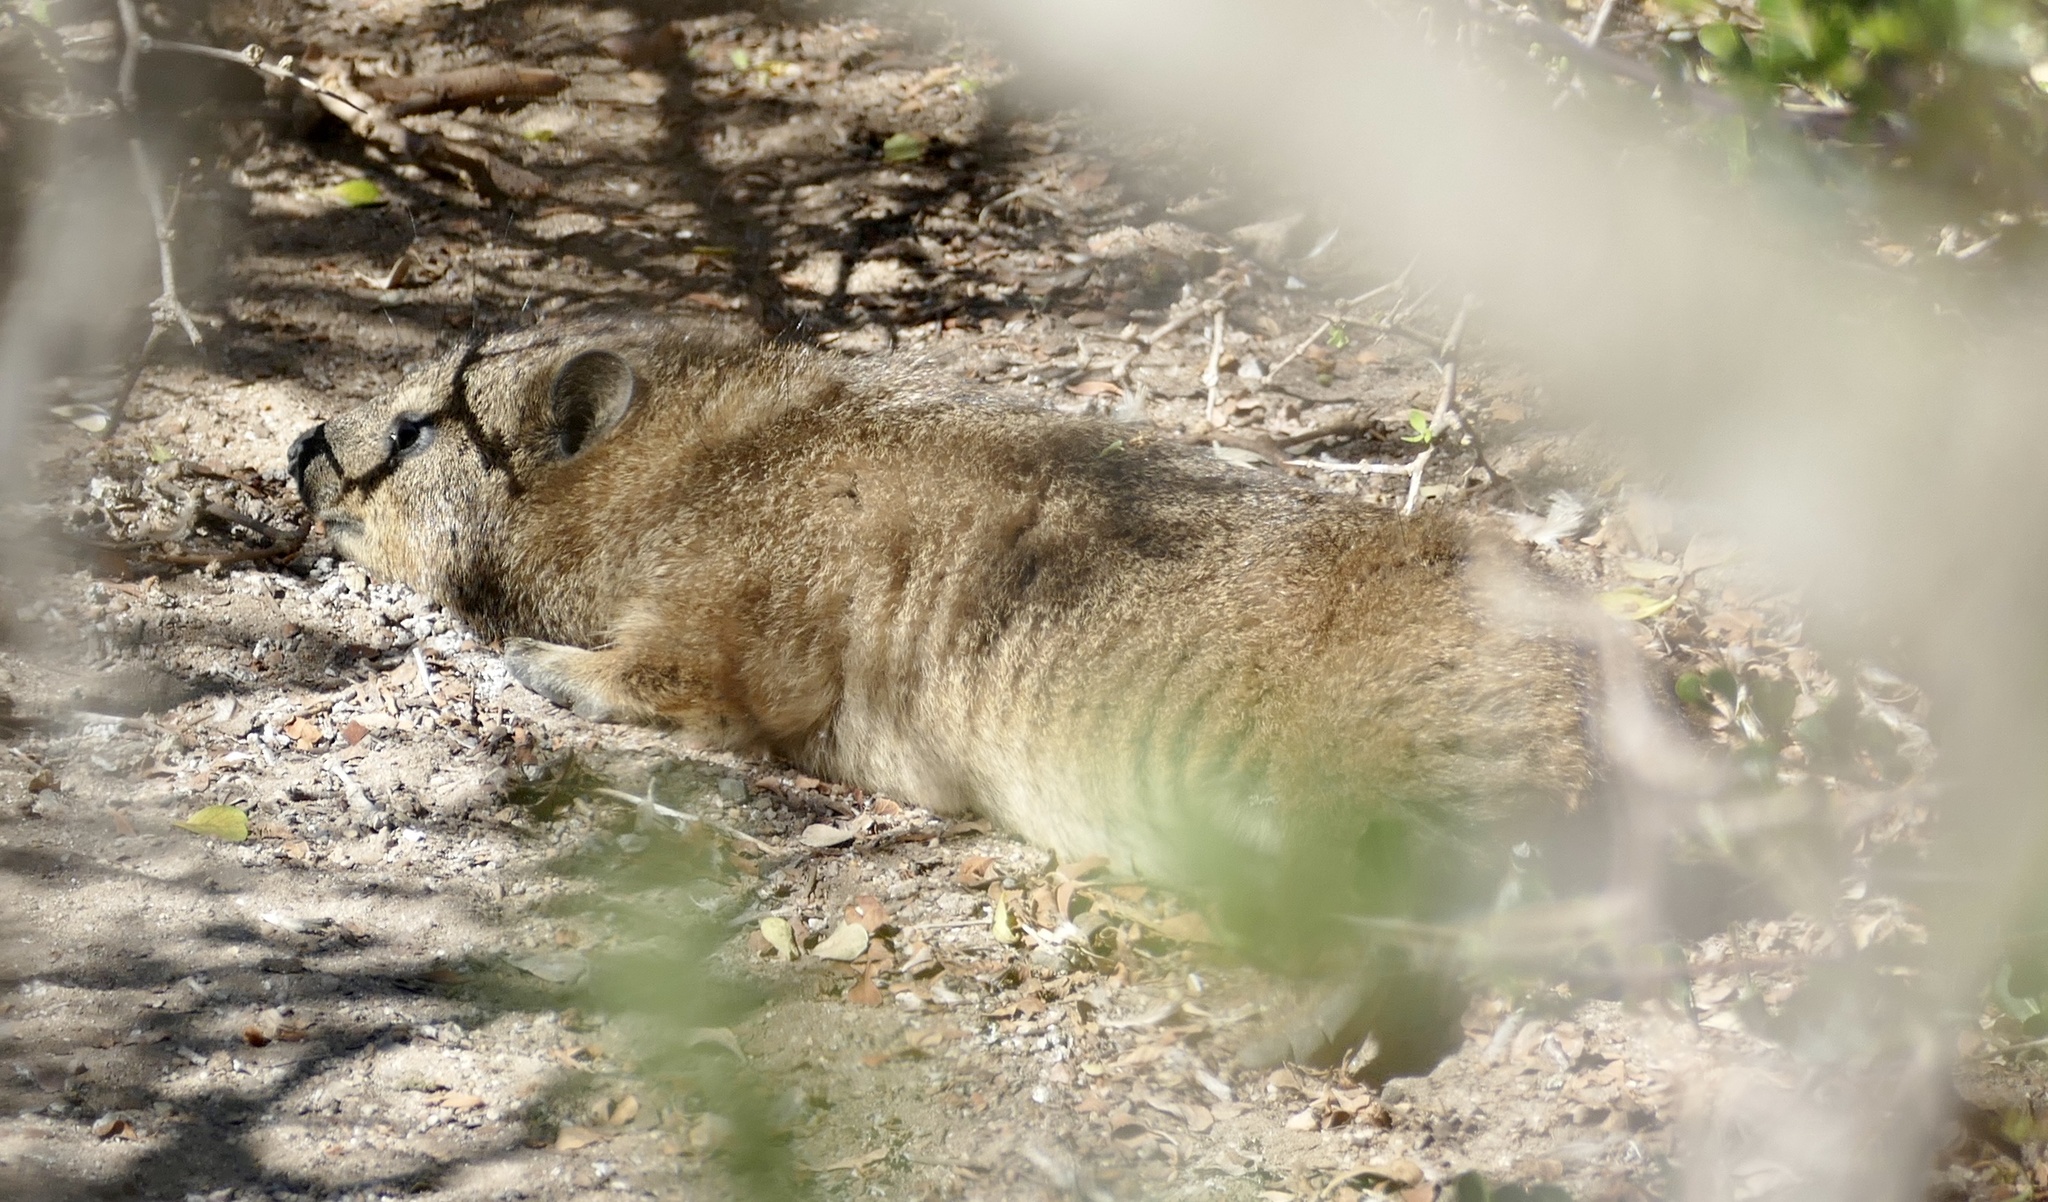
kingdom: Animalia
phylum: Chordata
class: Mammalia
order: Hyracoidea
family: Procaviidae
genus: Procavia
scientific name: Procavia capensis
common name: Rock hyrax
